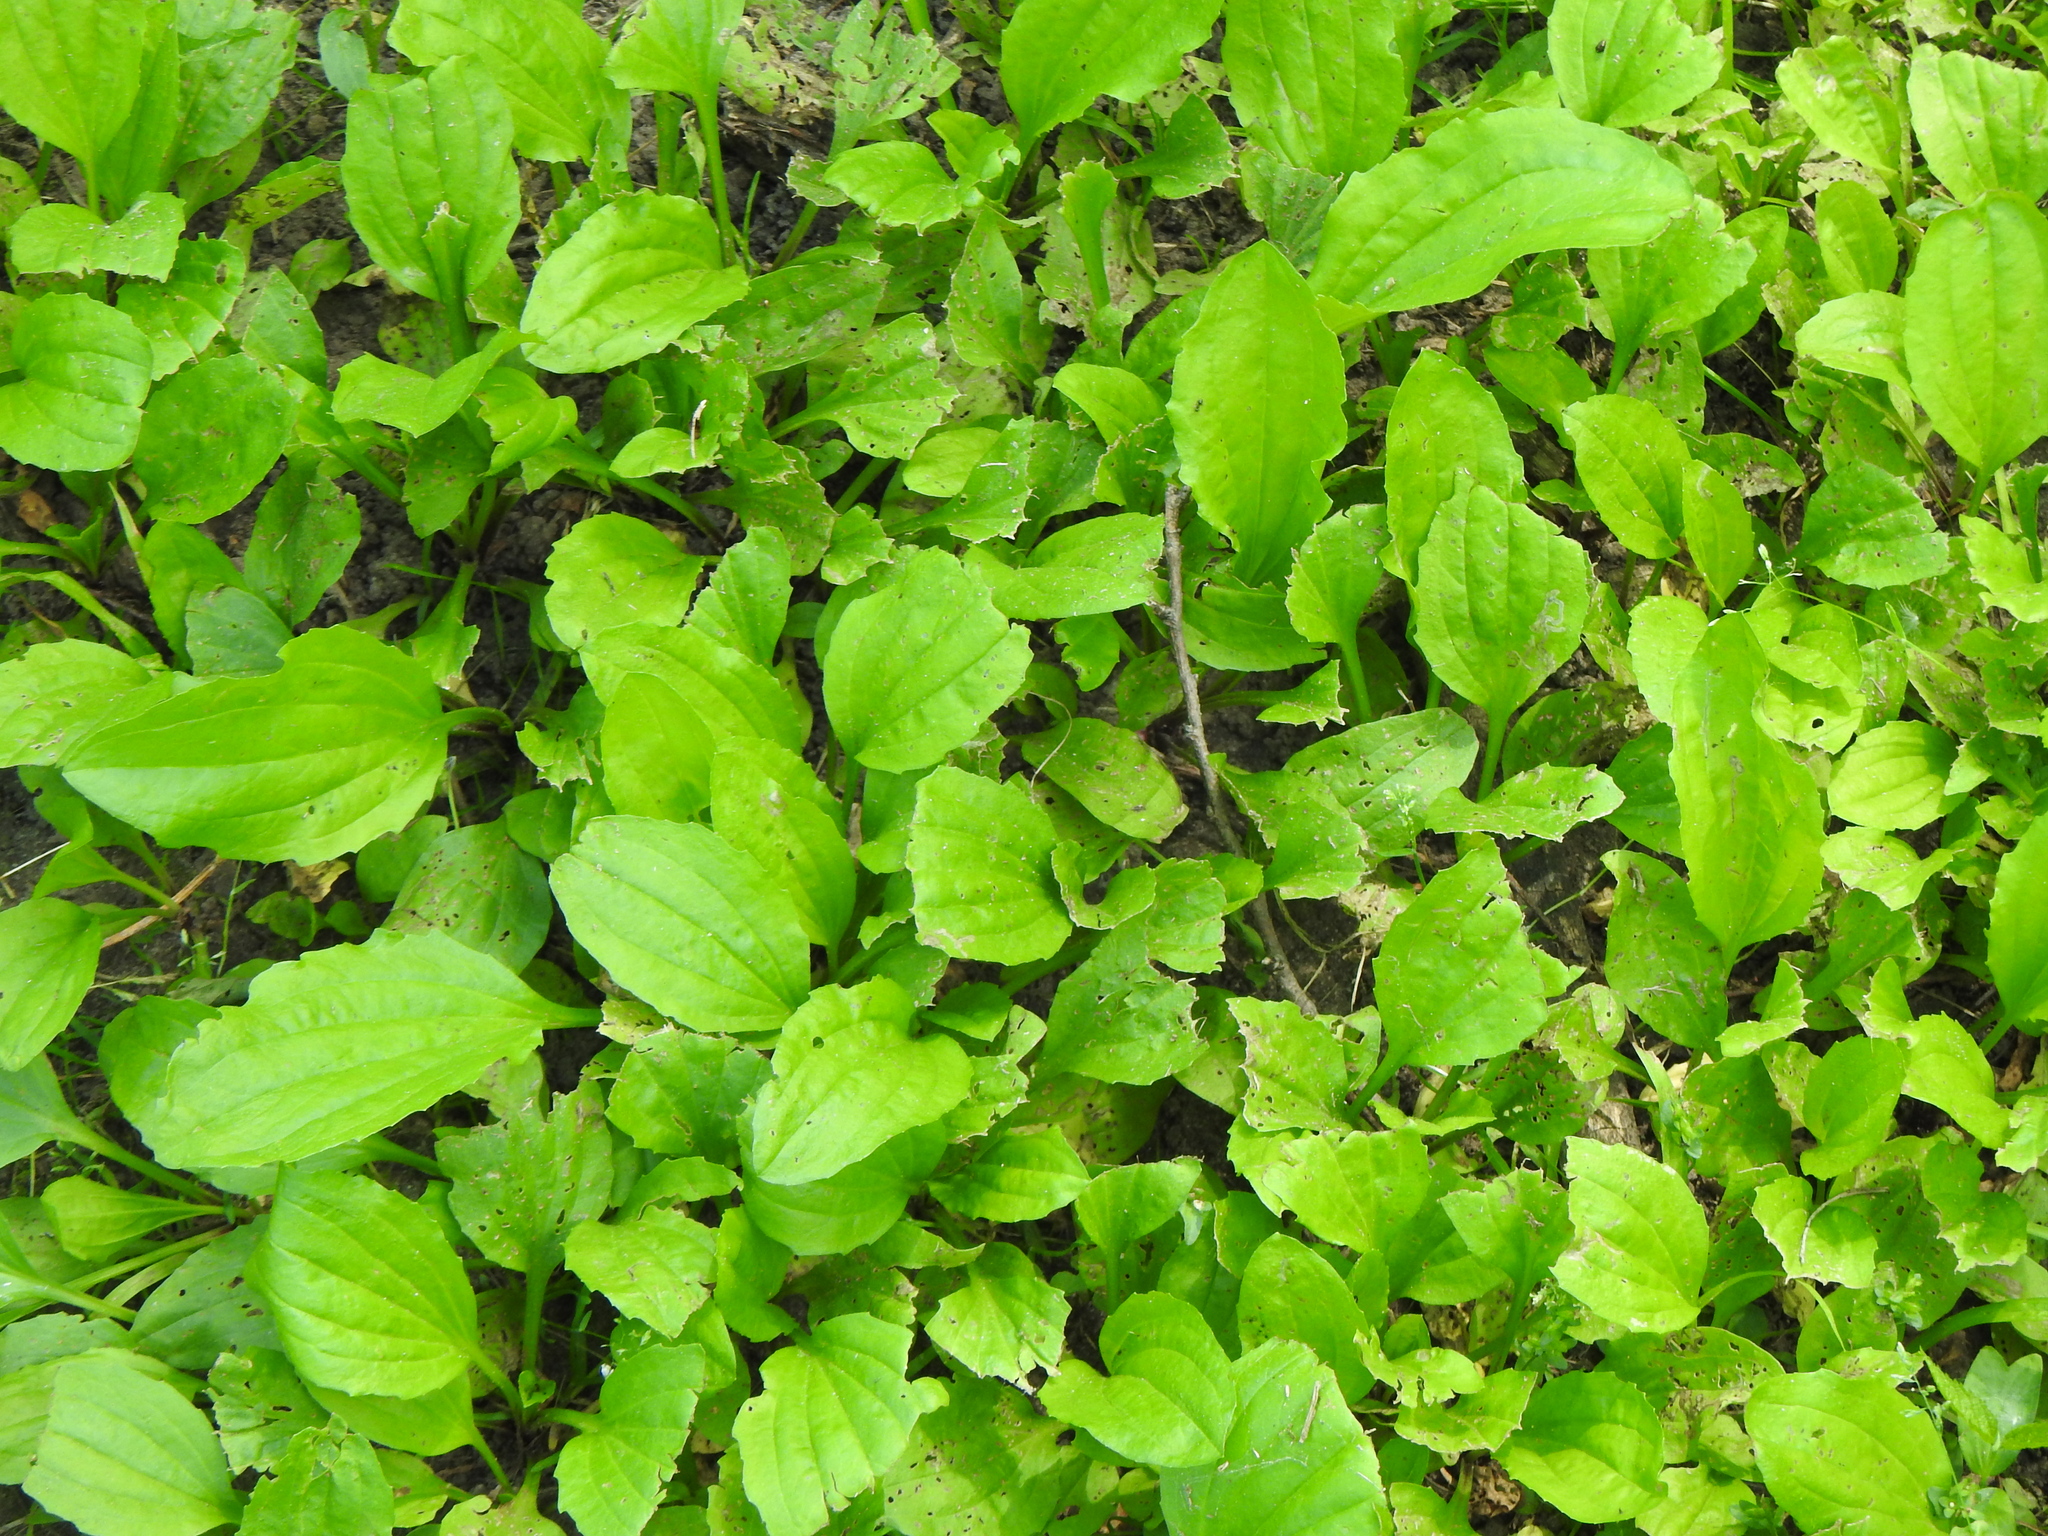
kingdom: Plantae
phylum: Tracheophyta
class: Magnoliopsida
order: Lamiales
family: Plantaginaceae
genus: Plantago
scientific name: Plantago rugelii
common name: American plantain
